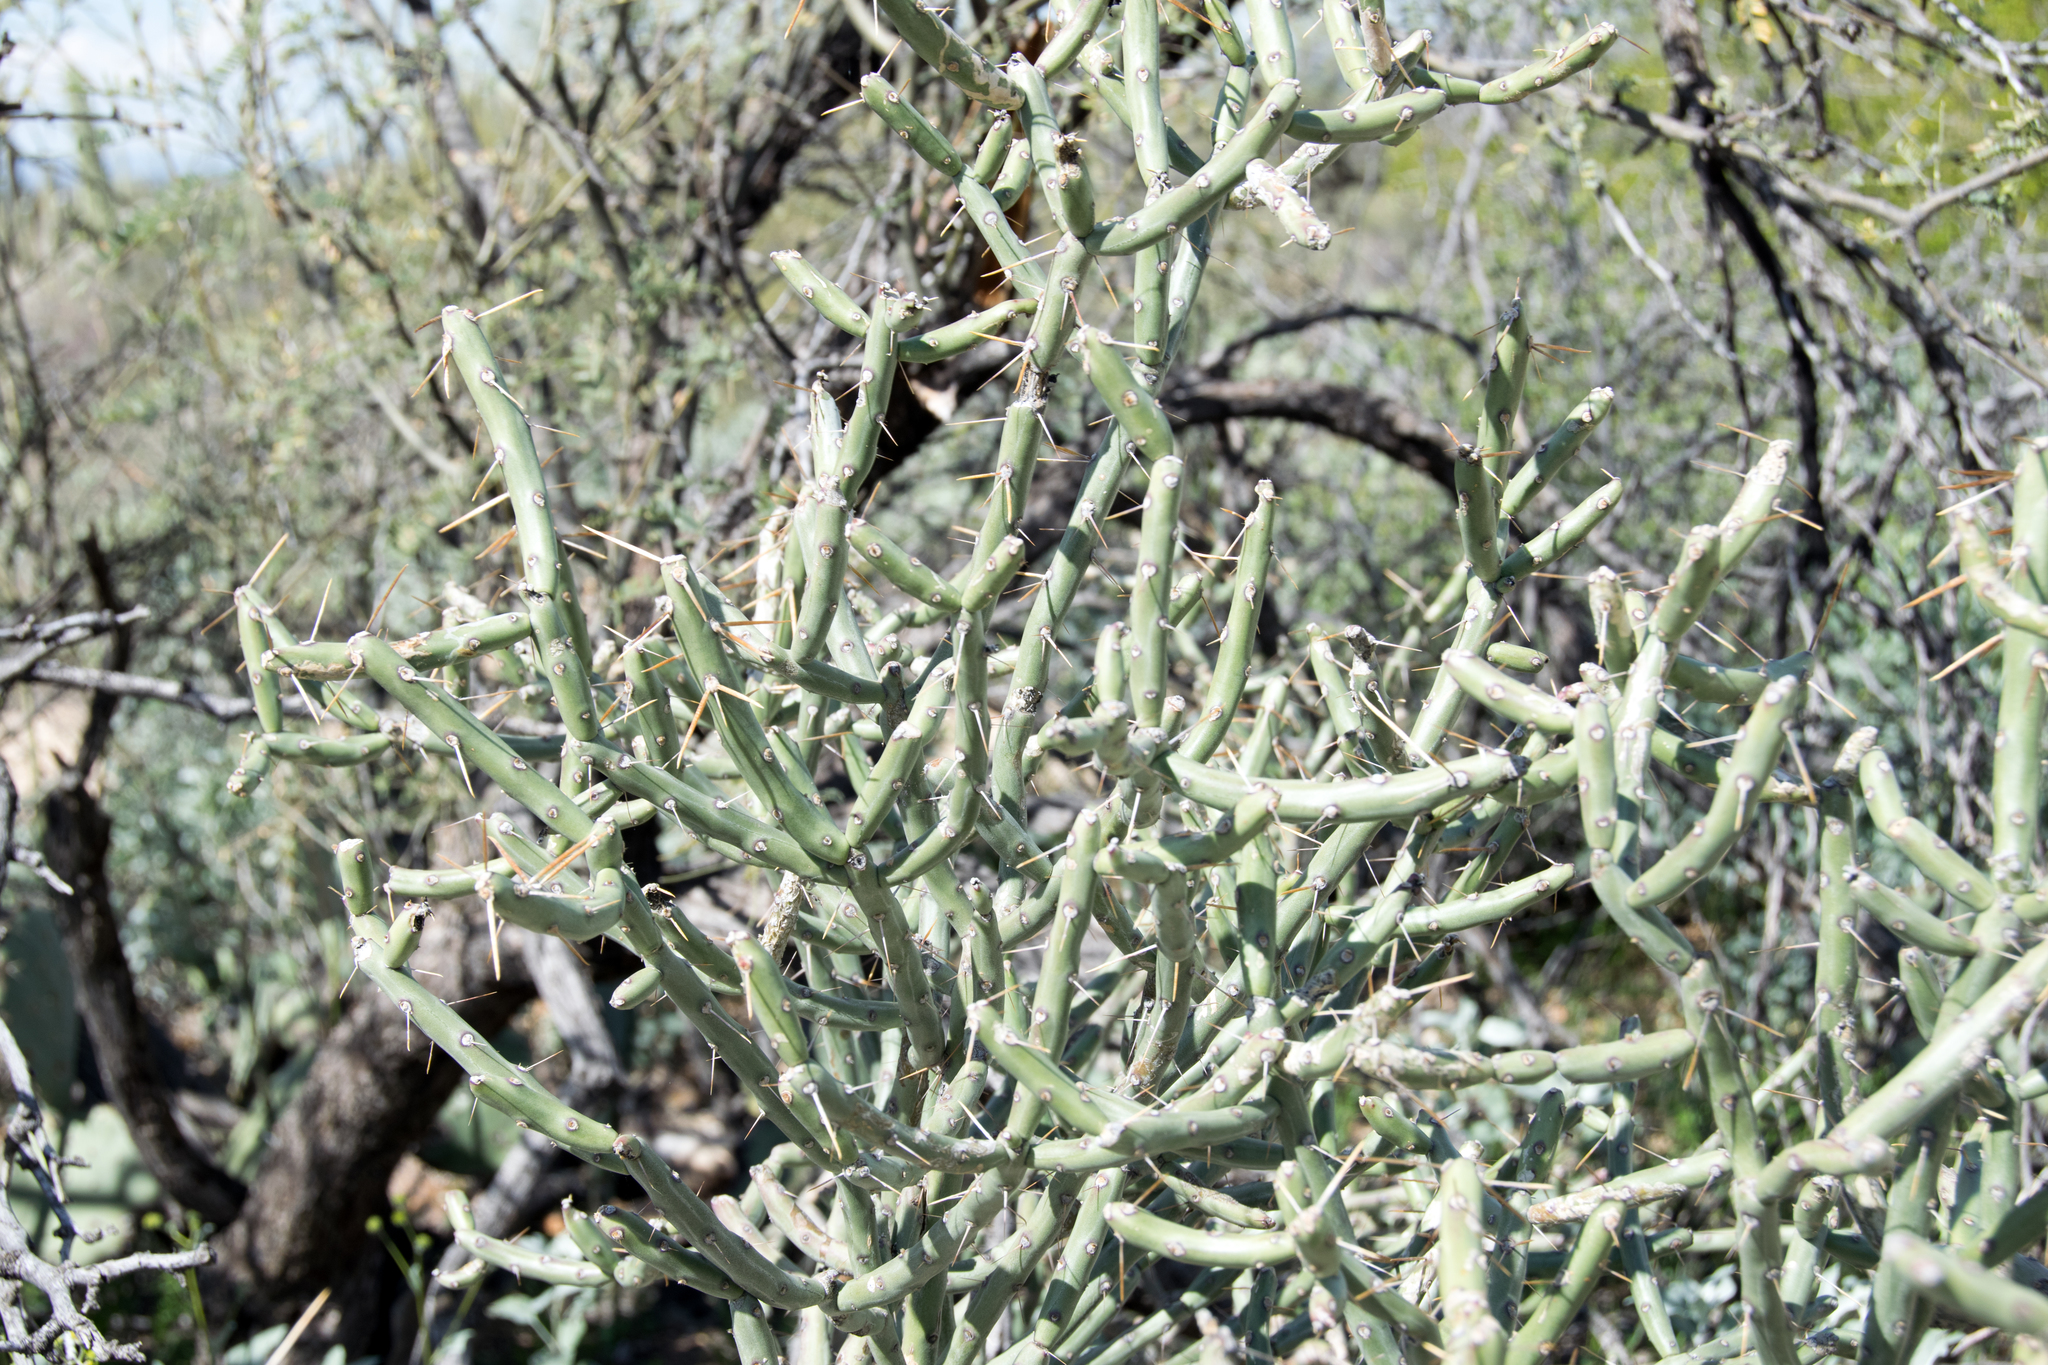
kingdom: Plantae
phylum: Tracheophyta
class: Magnoliopsida
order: Caryophyllales
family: Cactaceae
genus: Cylindropuntia
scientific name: Cylindropuntia arbuscula
